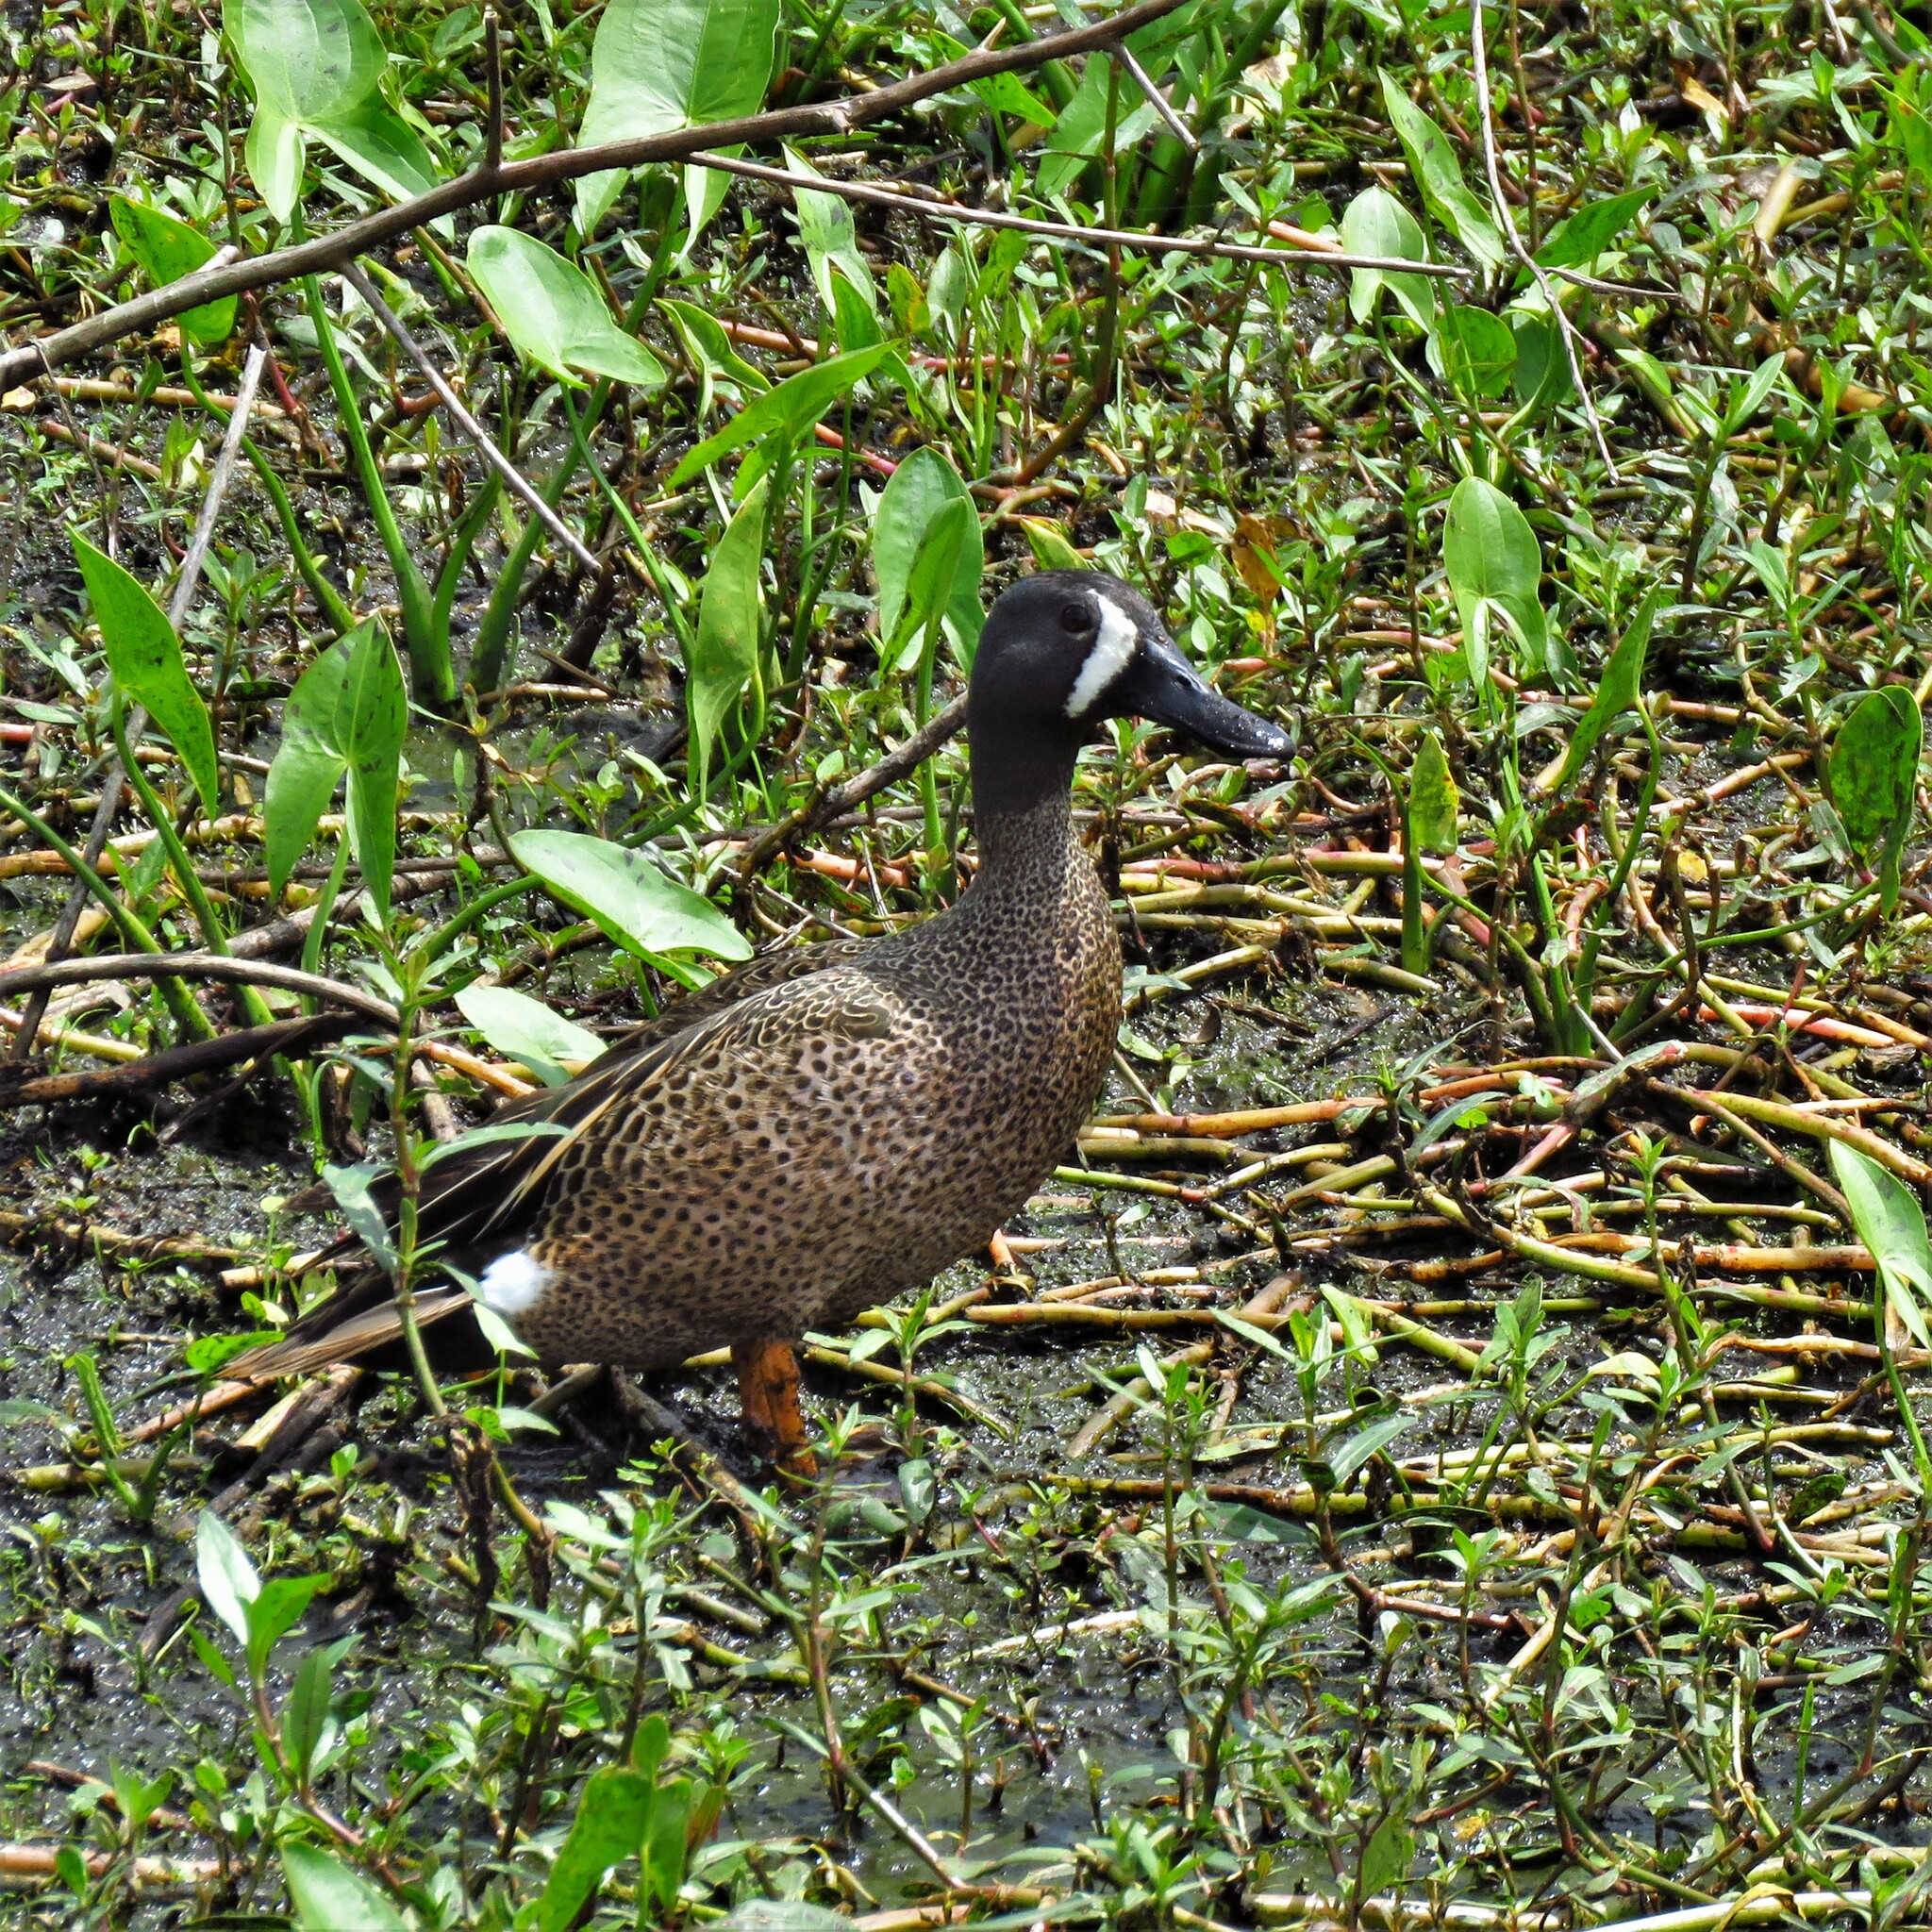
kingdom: Animalia
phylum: Chordata
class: Aves
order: Anseriformes
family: Anatidae
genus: Spatula
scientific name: Spatula discors
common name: Blue-winged teal
